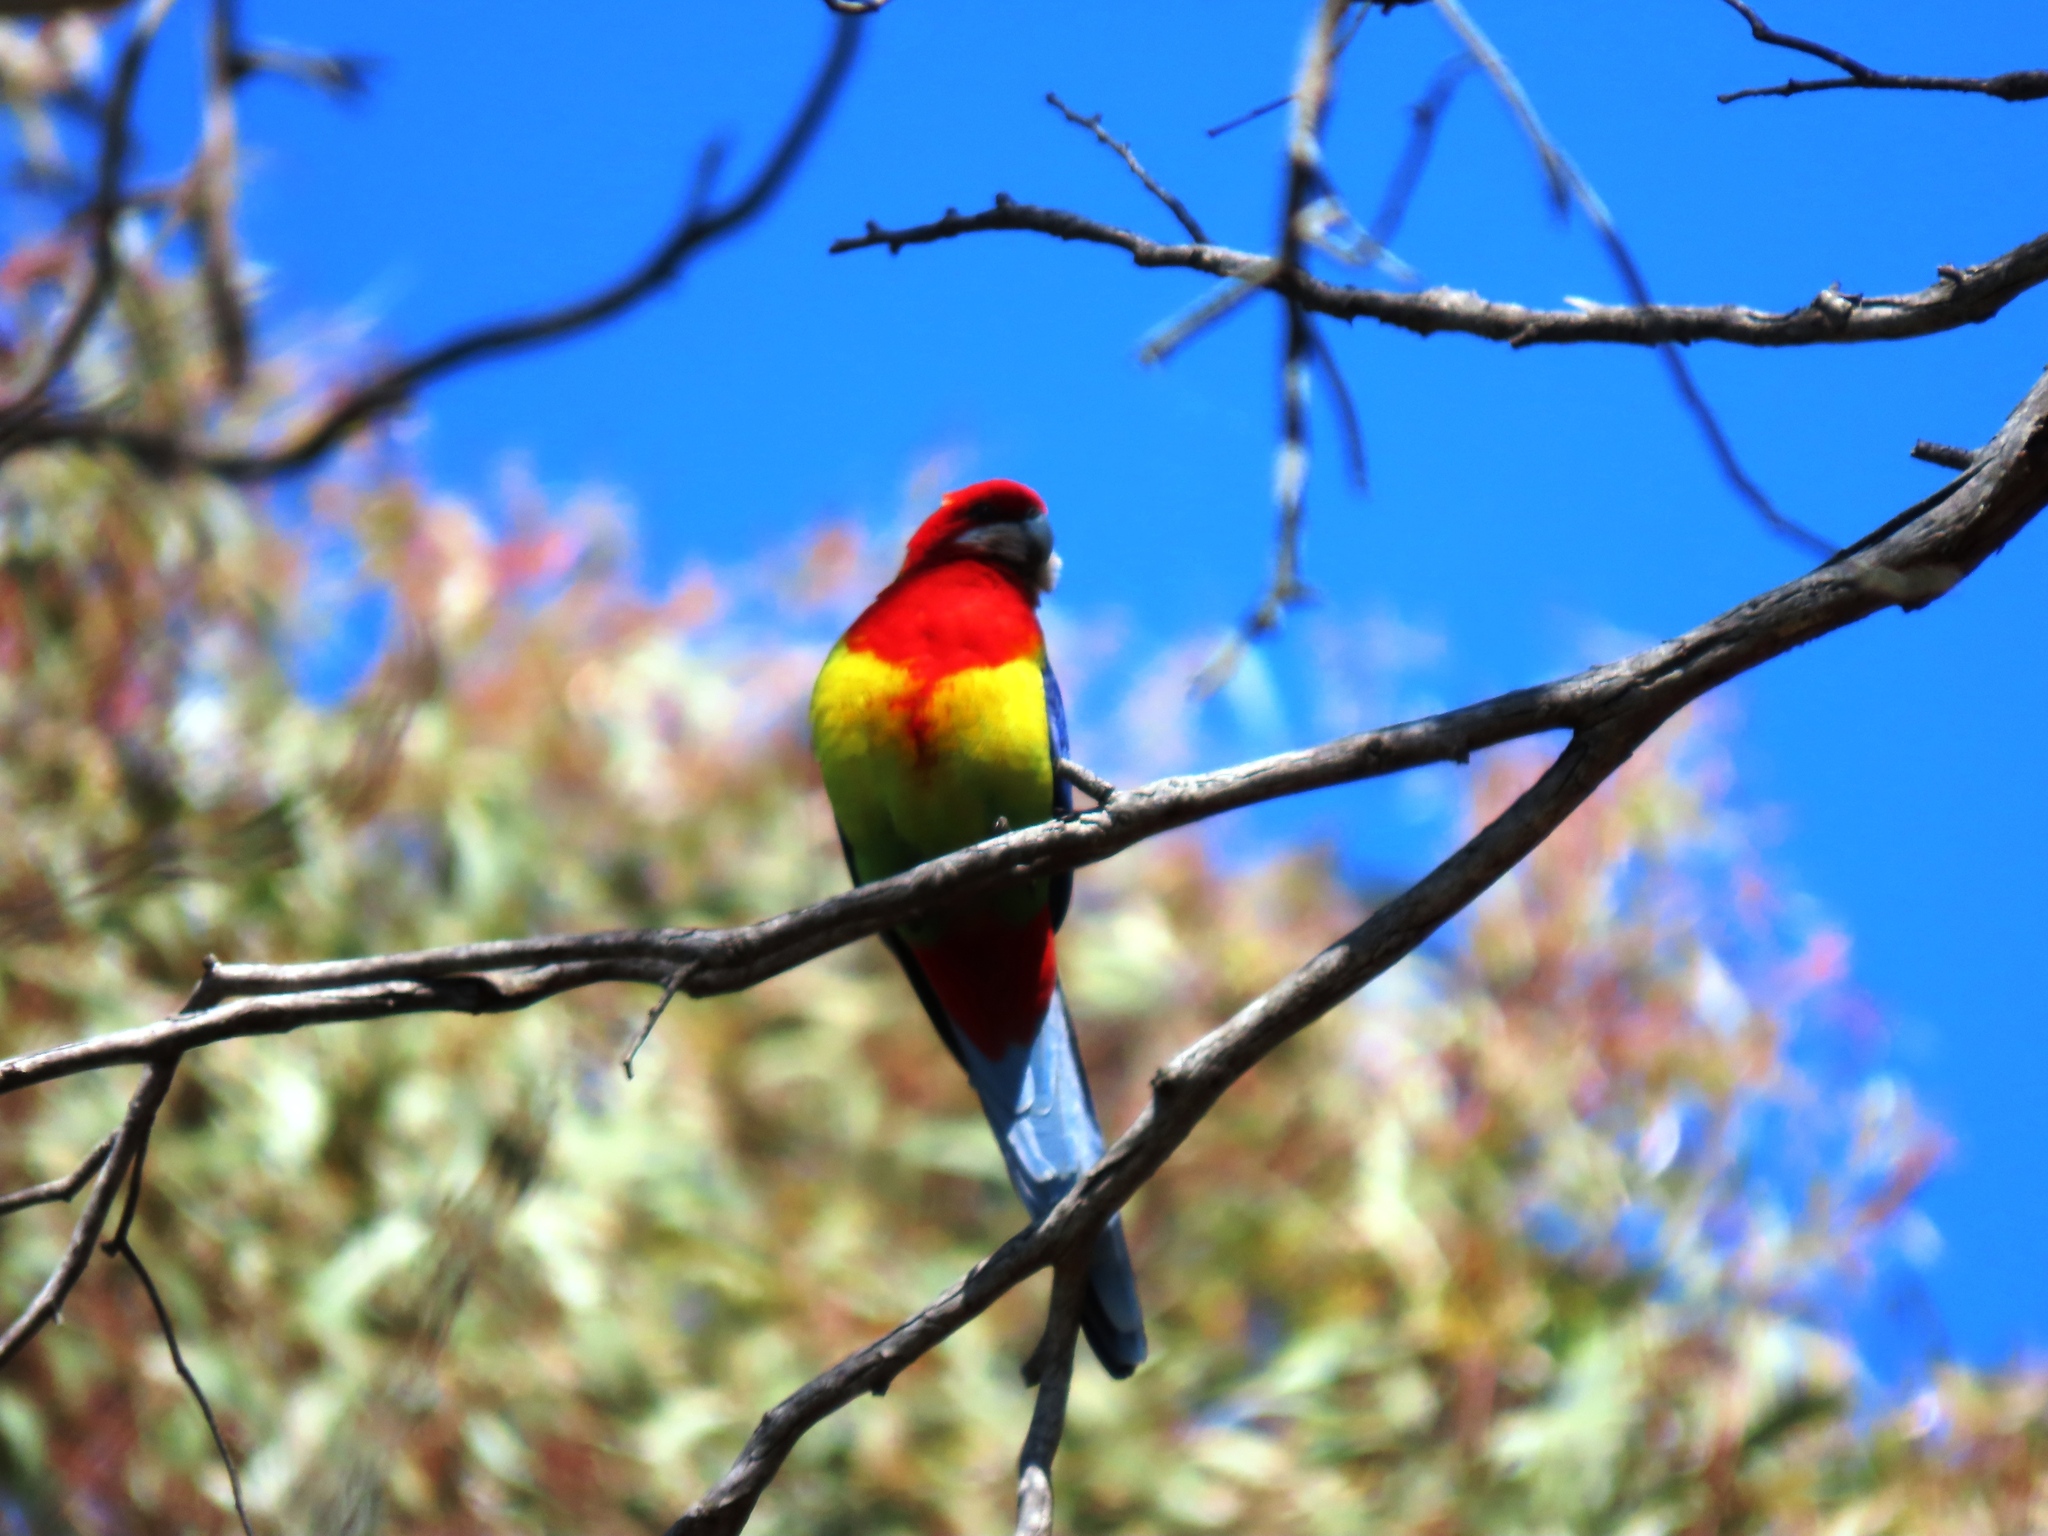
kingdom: Animalia
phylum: Chordata
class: Aves
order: Psittaciformes
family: Psittacidae
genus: Platycercus
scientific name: Platycercus eximius
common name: Eastern rosella
